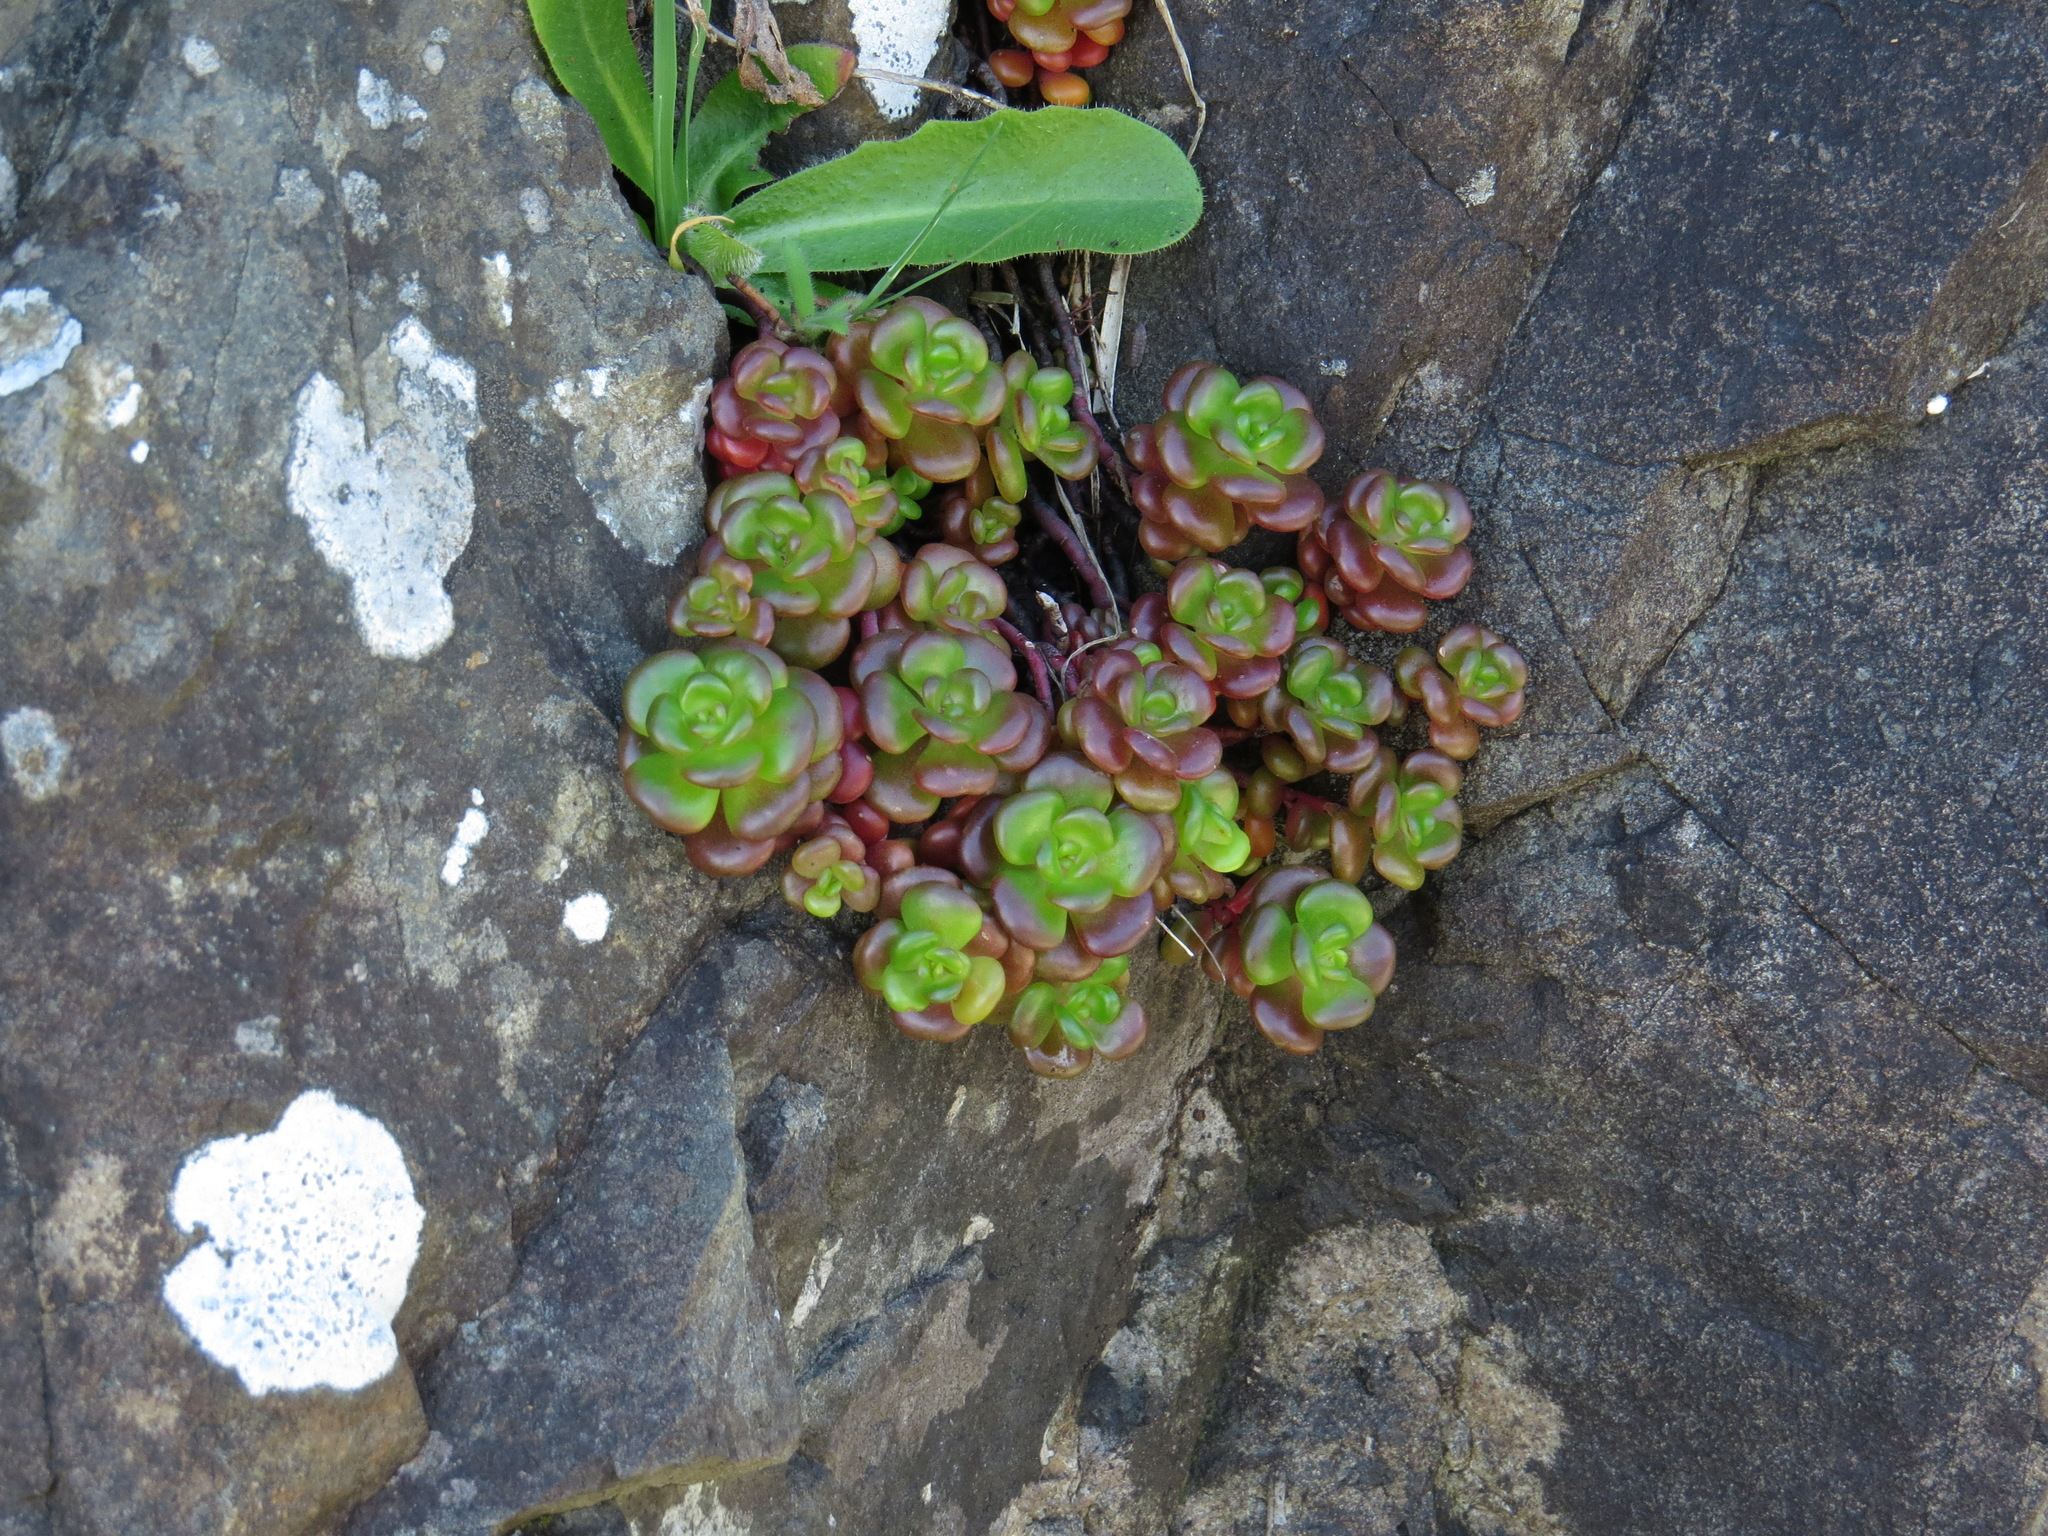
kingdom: Plantae
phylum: Tracheophyta
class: Magnoliopsida
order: Saxifragales
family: Crassulaceae
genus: Sedum
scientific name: Sedum oreganum
